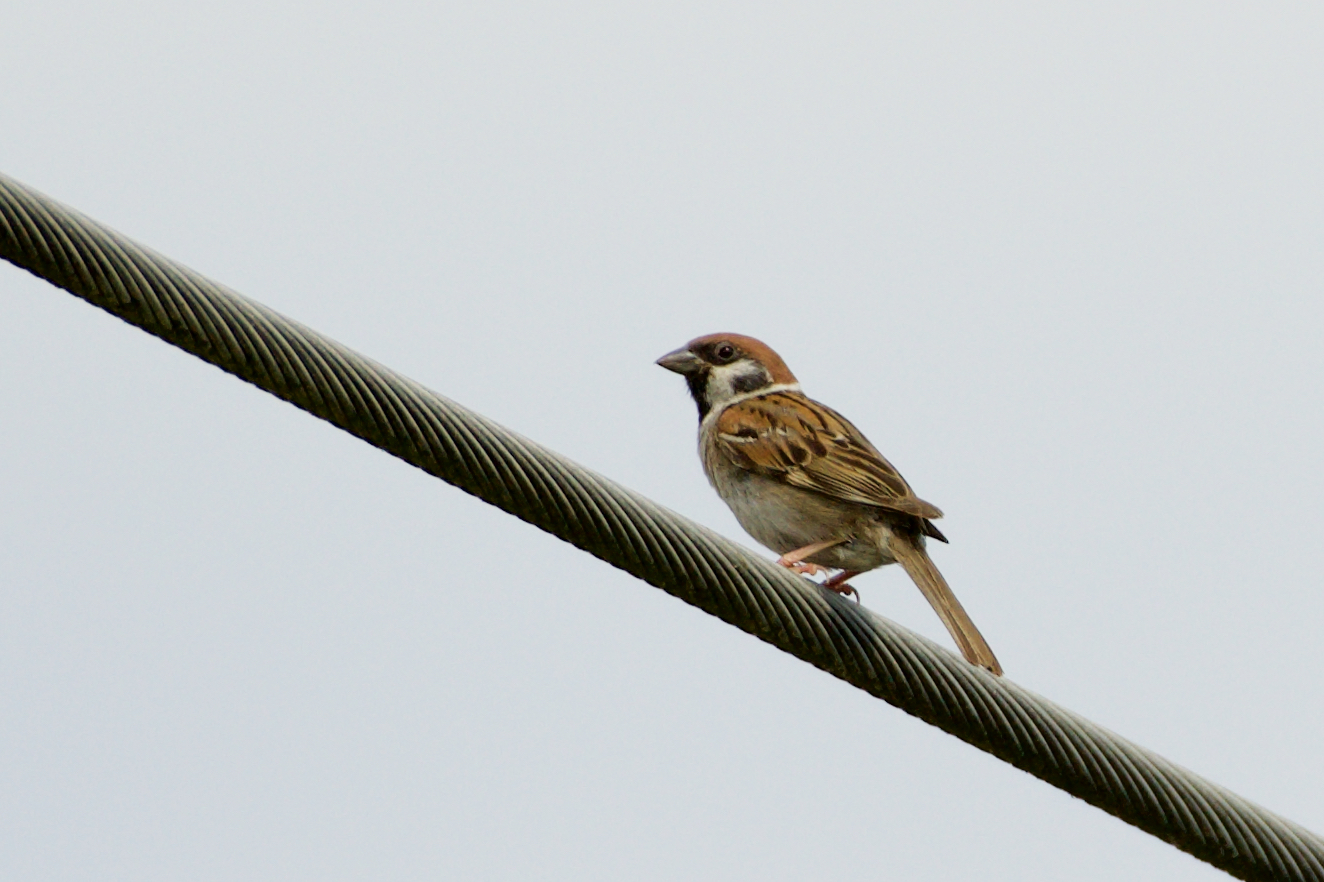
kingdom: Animalia
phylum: Chordata
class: Aves
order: Passeriformes
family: Passeridae
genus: Passer
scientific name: Passer montanus
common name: Eurasian tree sparrow
